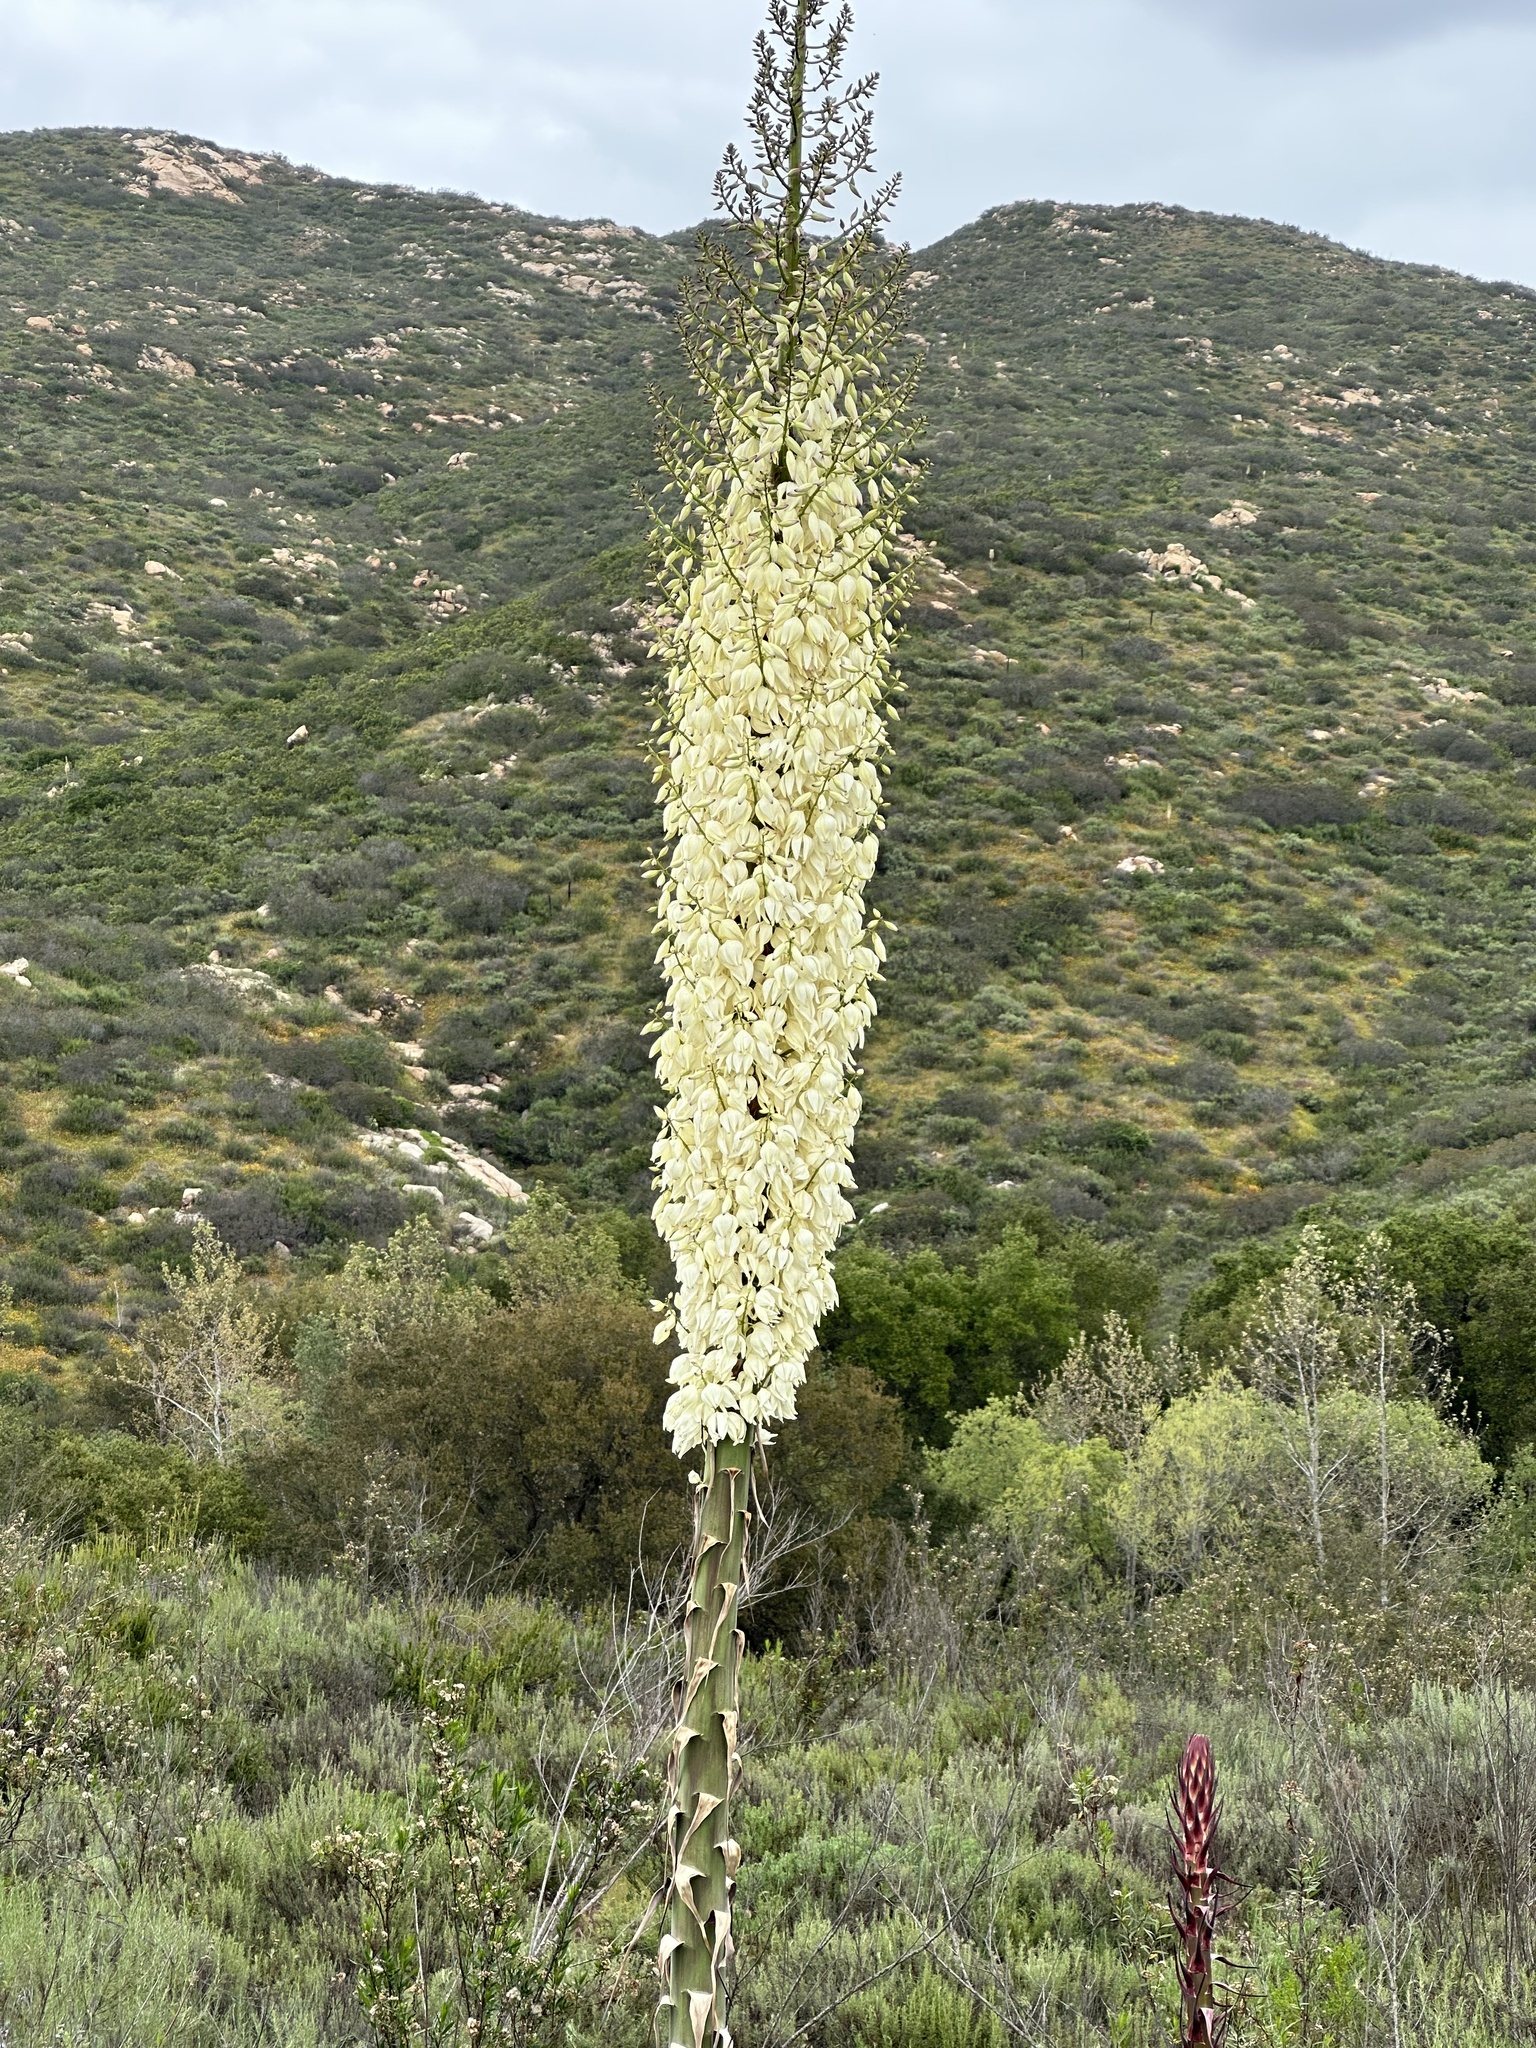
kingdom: Plantae
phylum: Tracheophyta
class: Liliopsida
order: Asparagales
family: Asparagaceae
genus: Hesperoyucca
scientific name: Hesperoyucca whipplei
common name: Our lord's-candle
